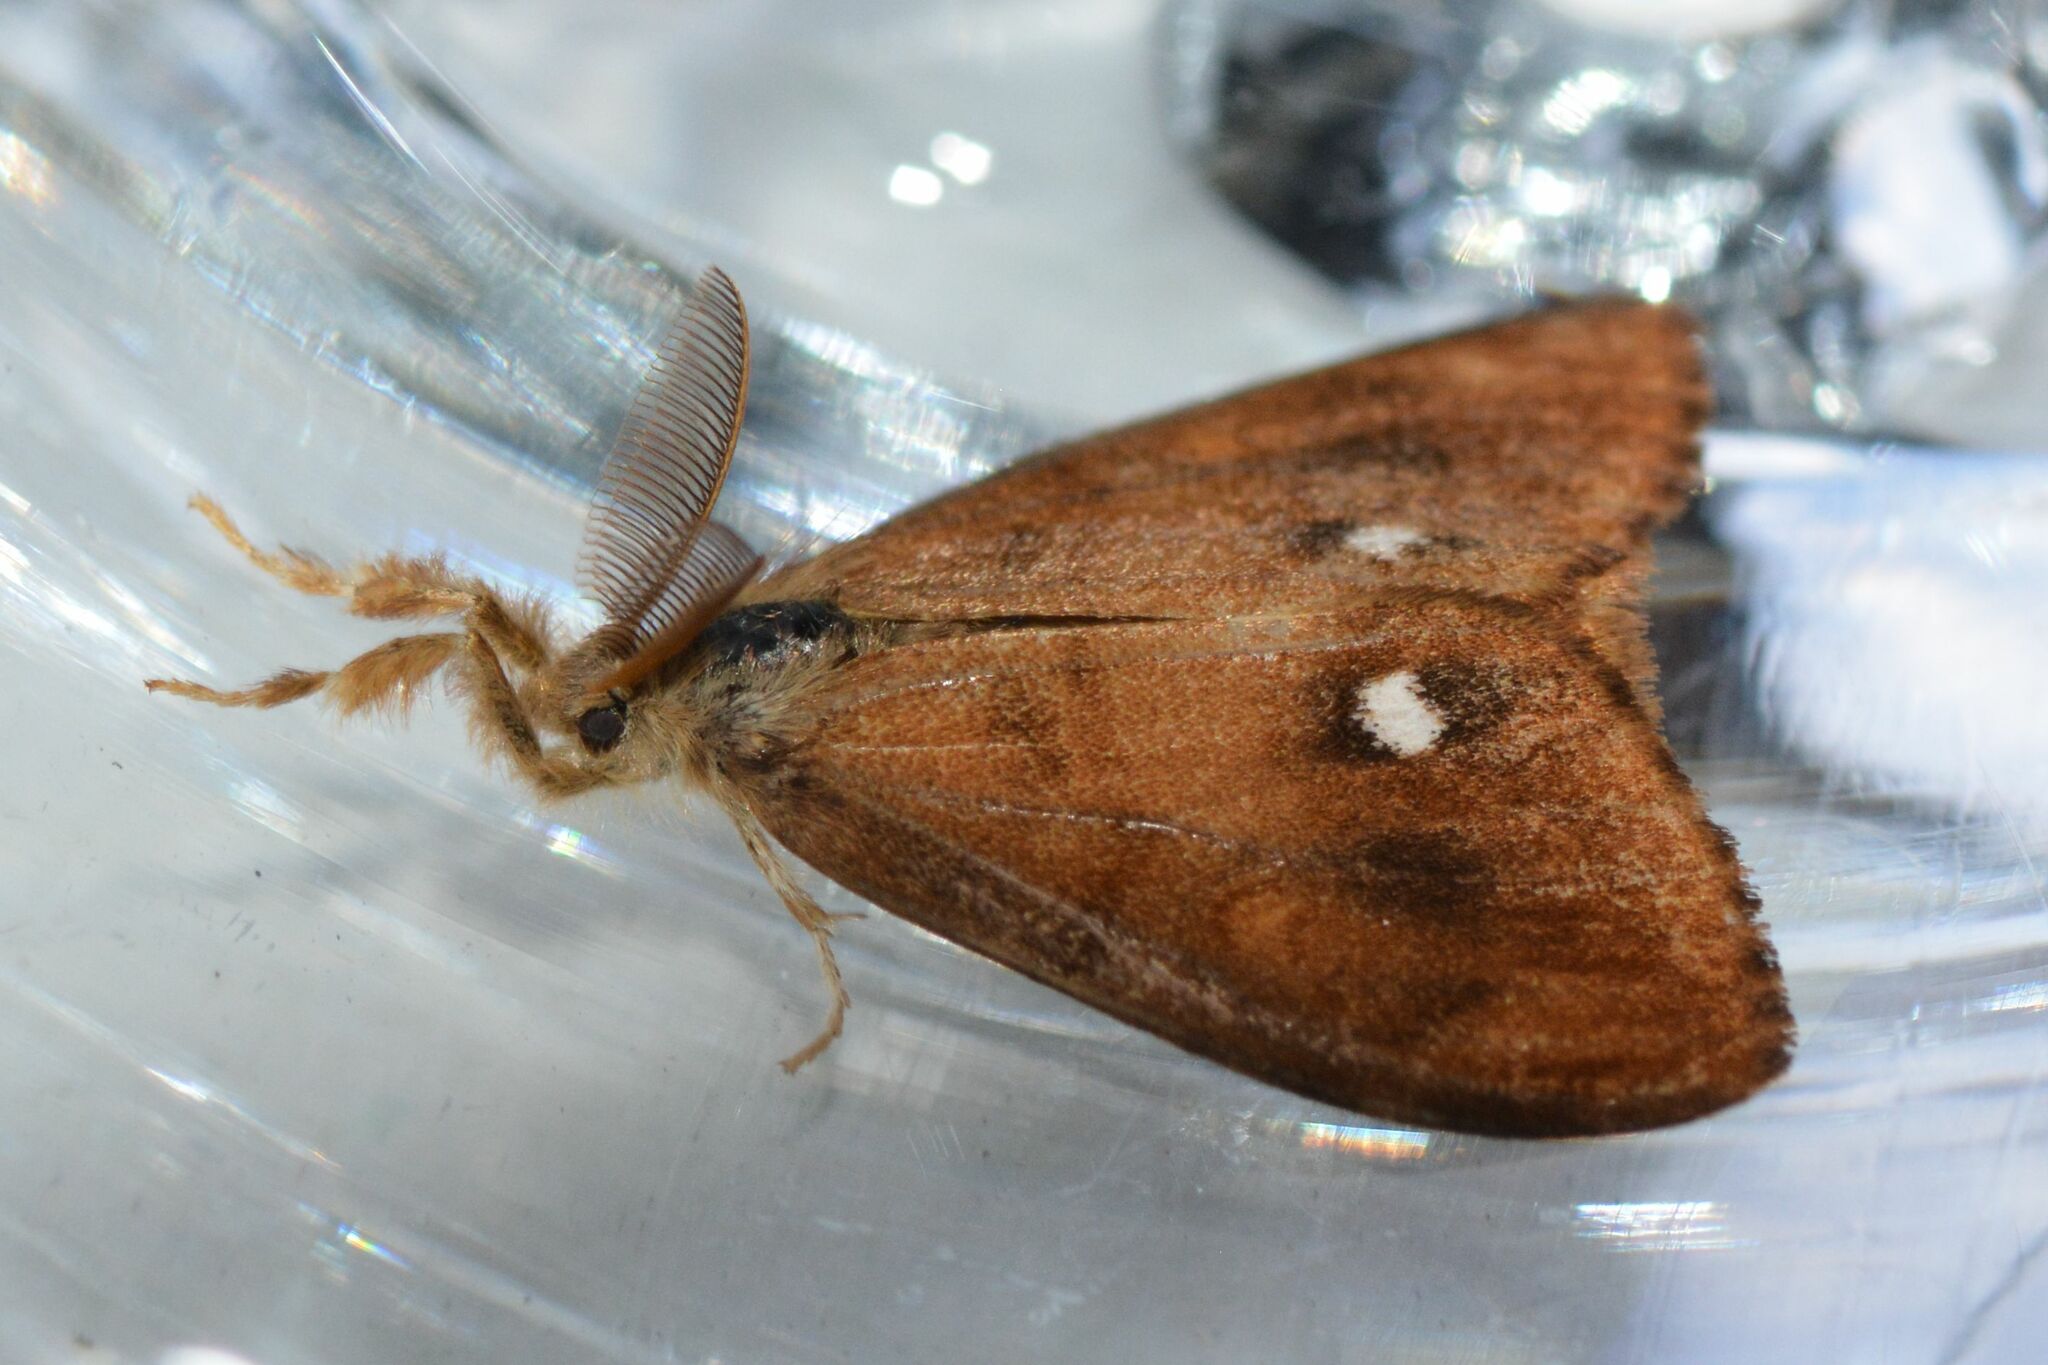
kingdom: Animalia
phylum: Arthropoda
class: Insecta
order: Lepidoptera
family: Erebidae
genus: Orgyia
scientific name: Orgyia antiqua
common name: Vapourer
